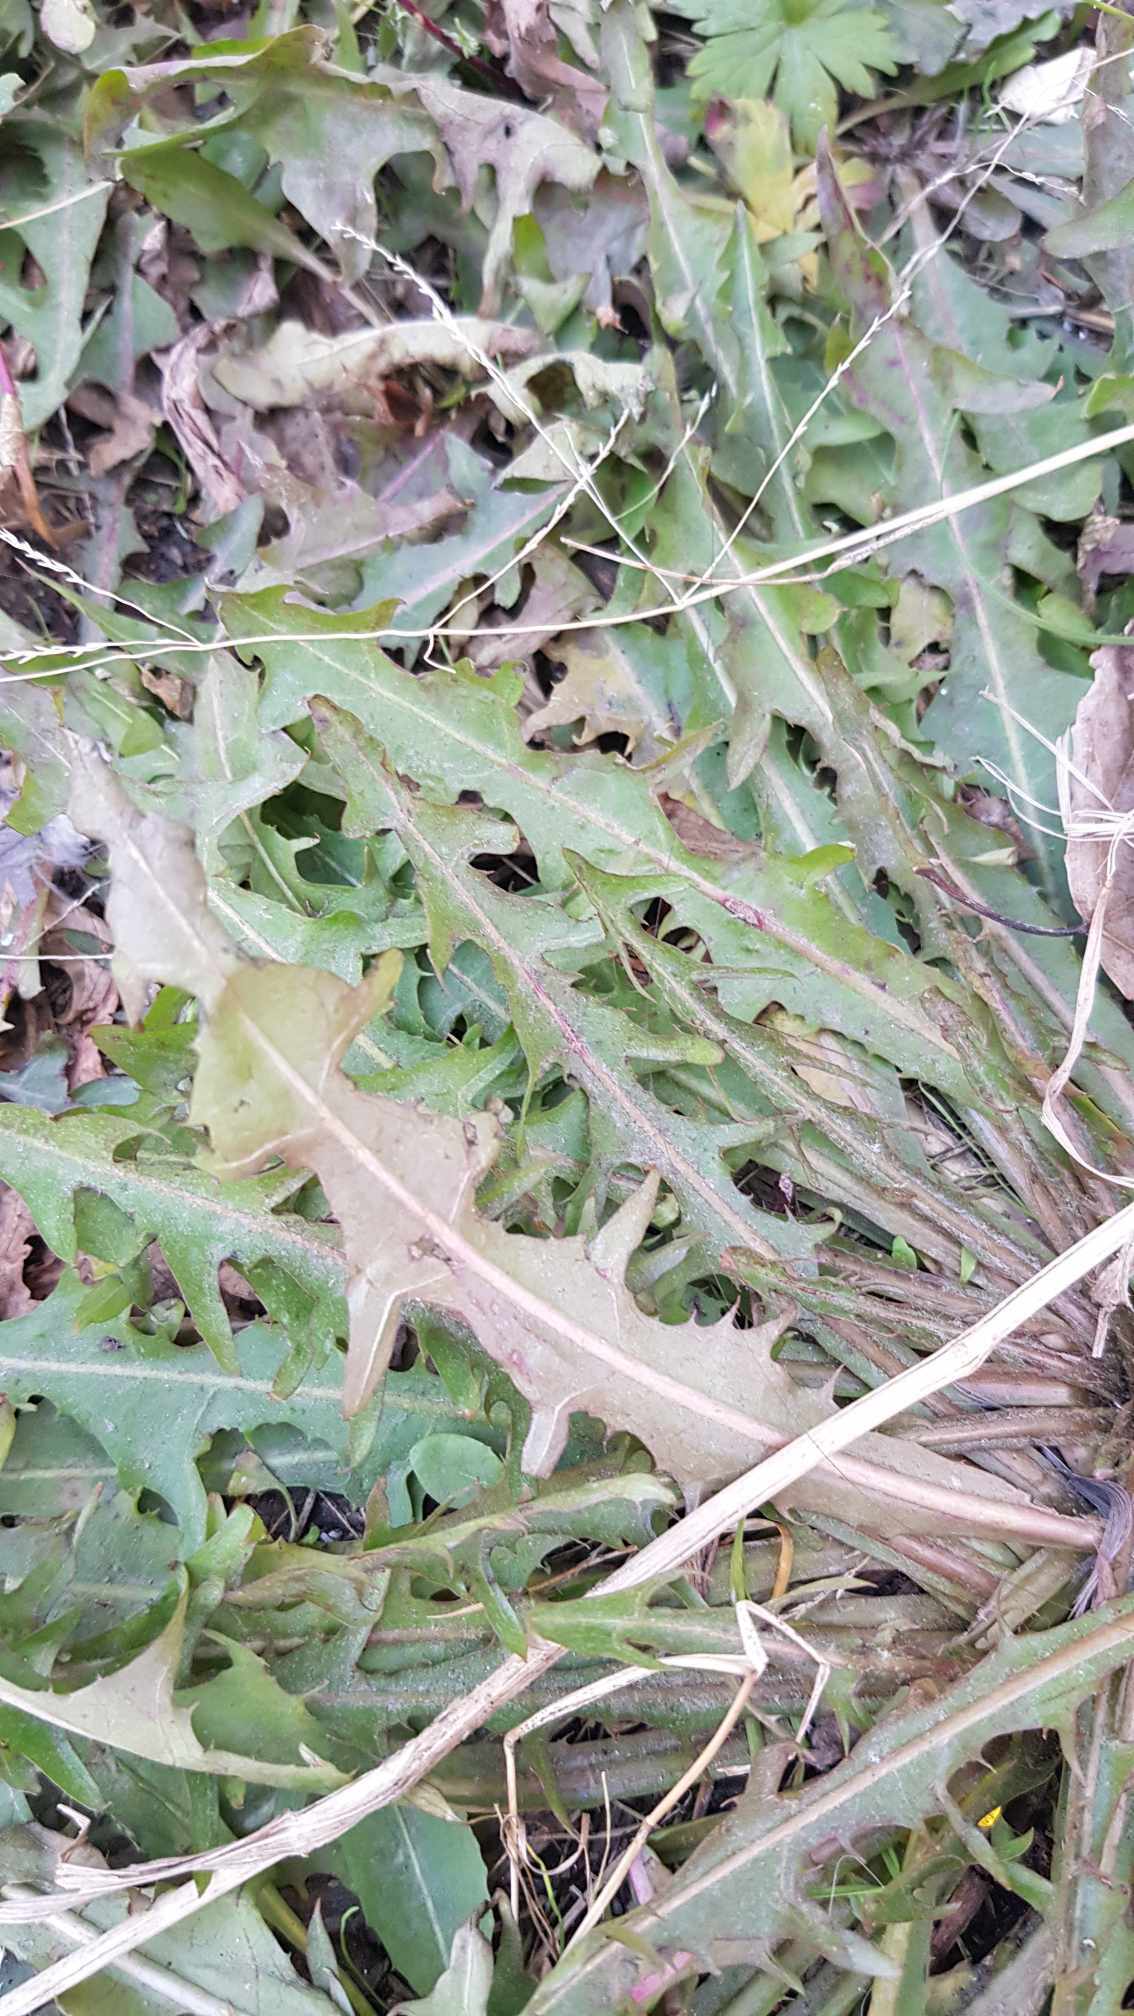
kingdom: Plantae
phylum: Tracheophyta
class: Magnoliopsida
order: Asterales
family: Asteraceae
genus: Taraxacum
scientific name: Taraxacum mongolicum
